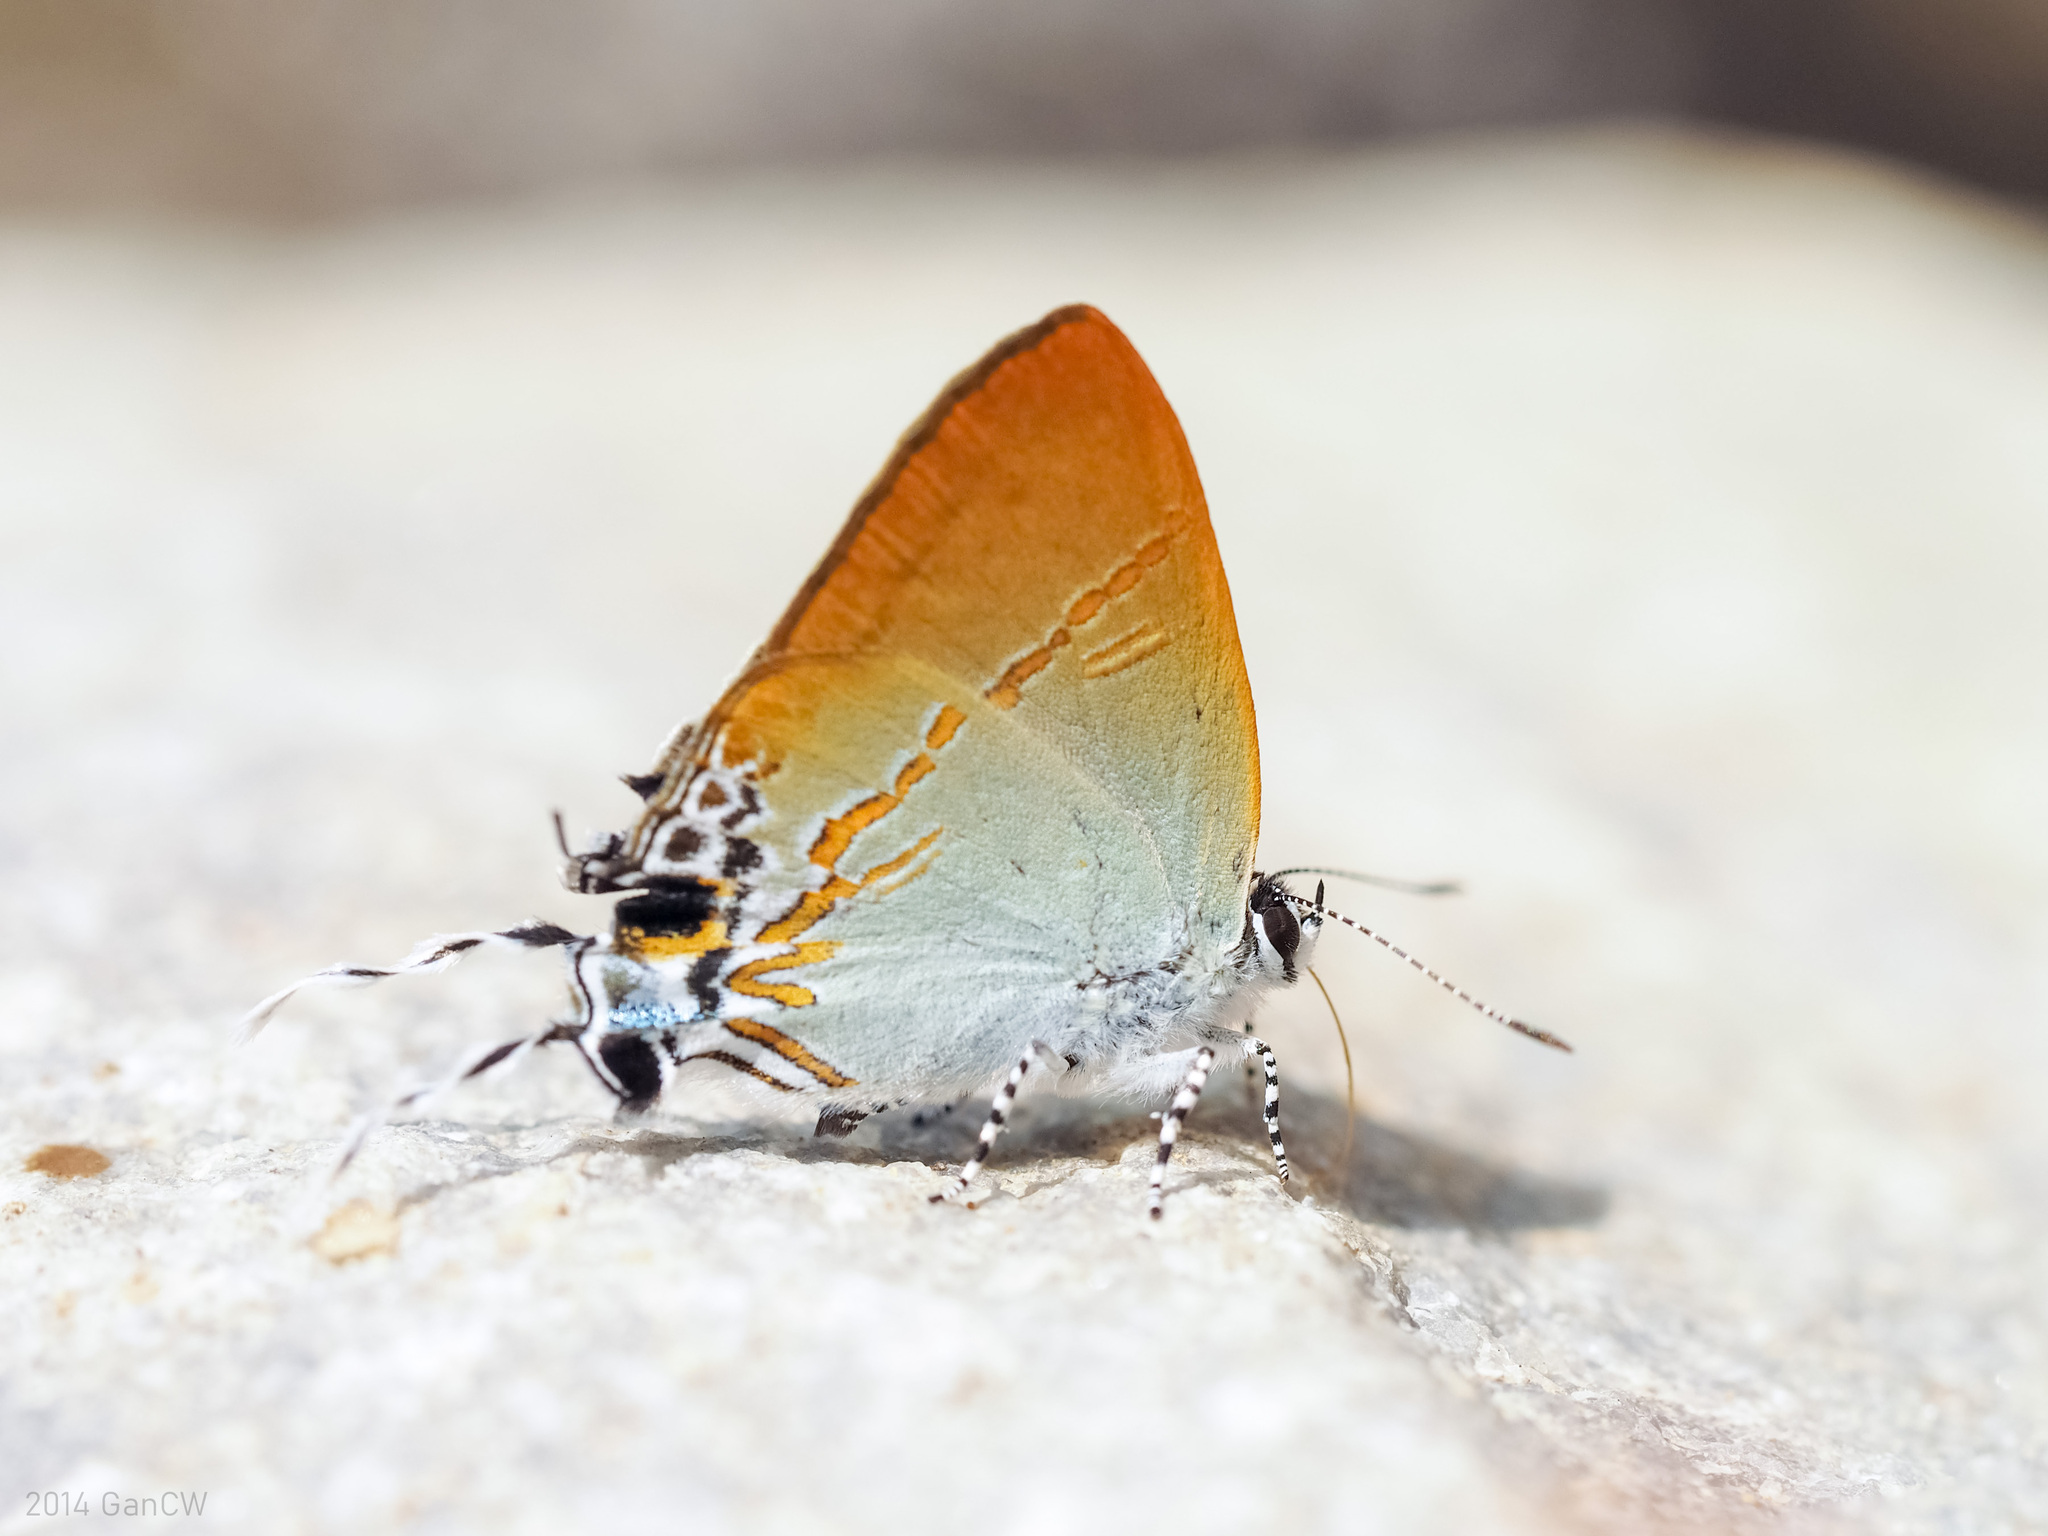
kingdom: Animalia
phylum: Arthropoda
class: Insecta
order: Lepidoptera
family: Lycaenidae
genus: Hypolycaena
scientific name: Hypolycaena merguia
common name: Purple tit
